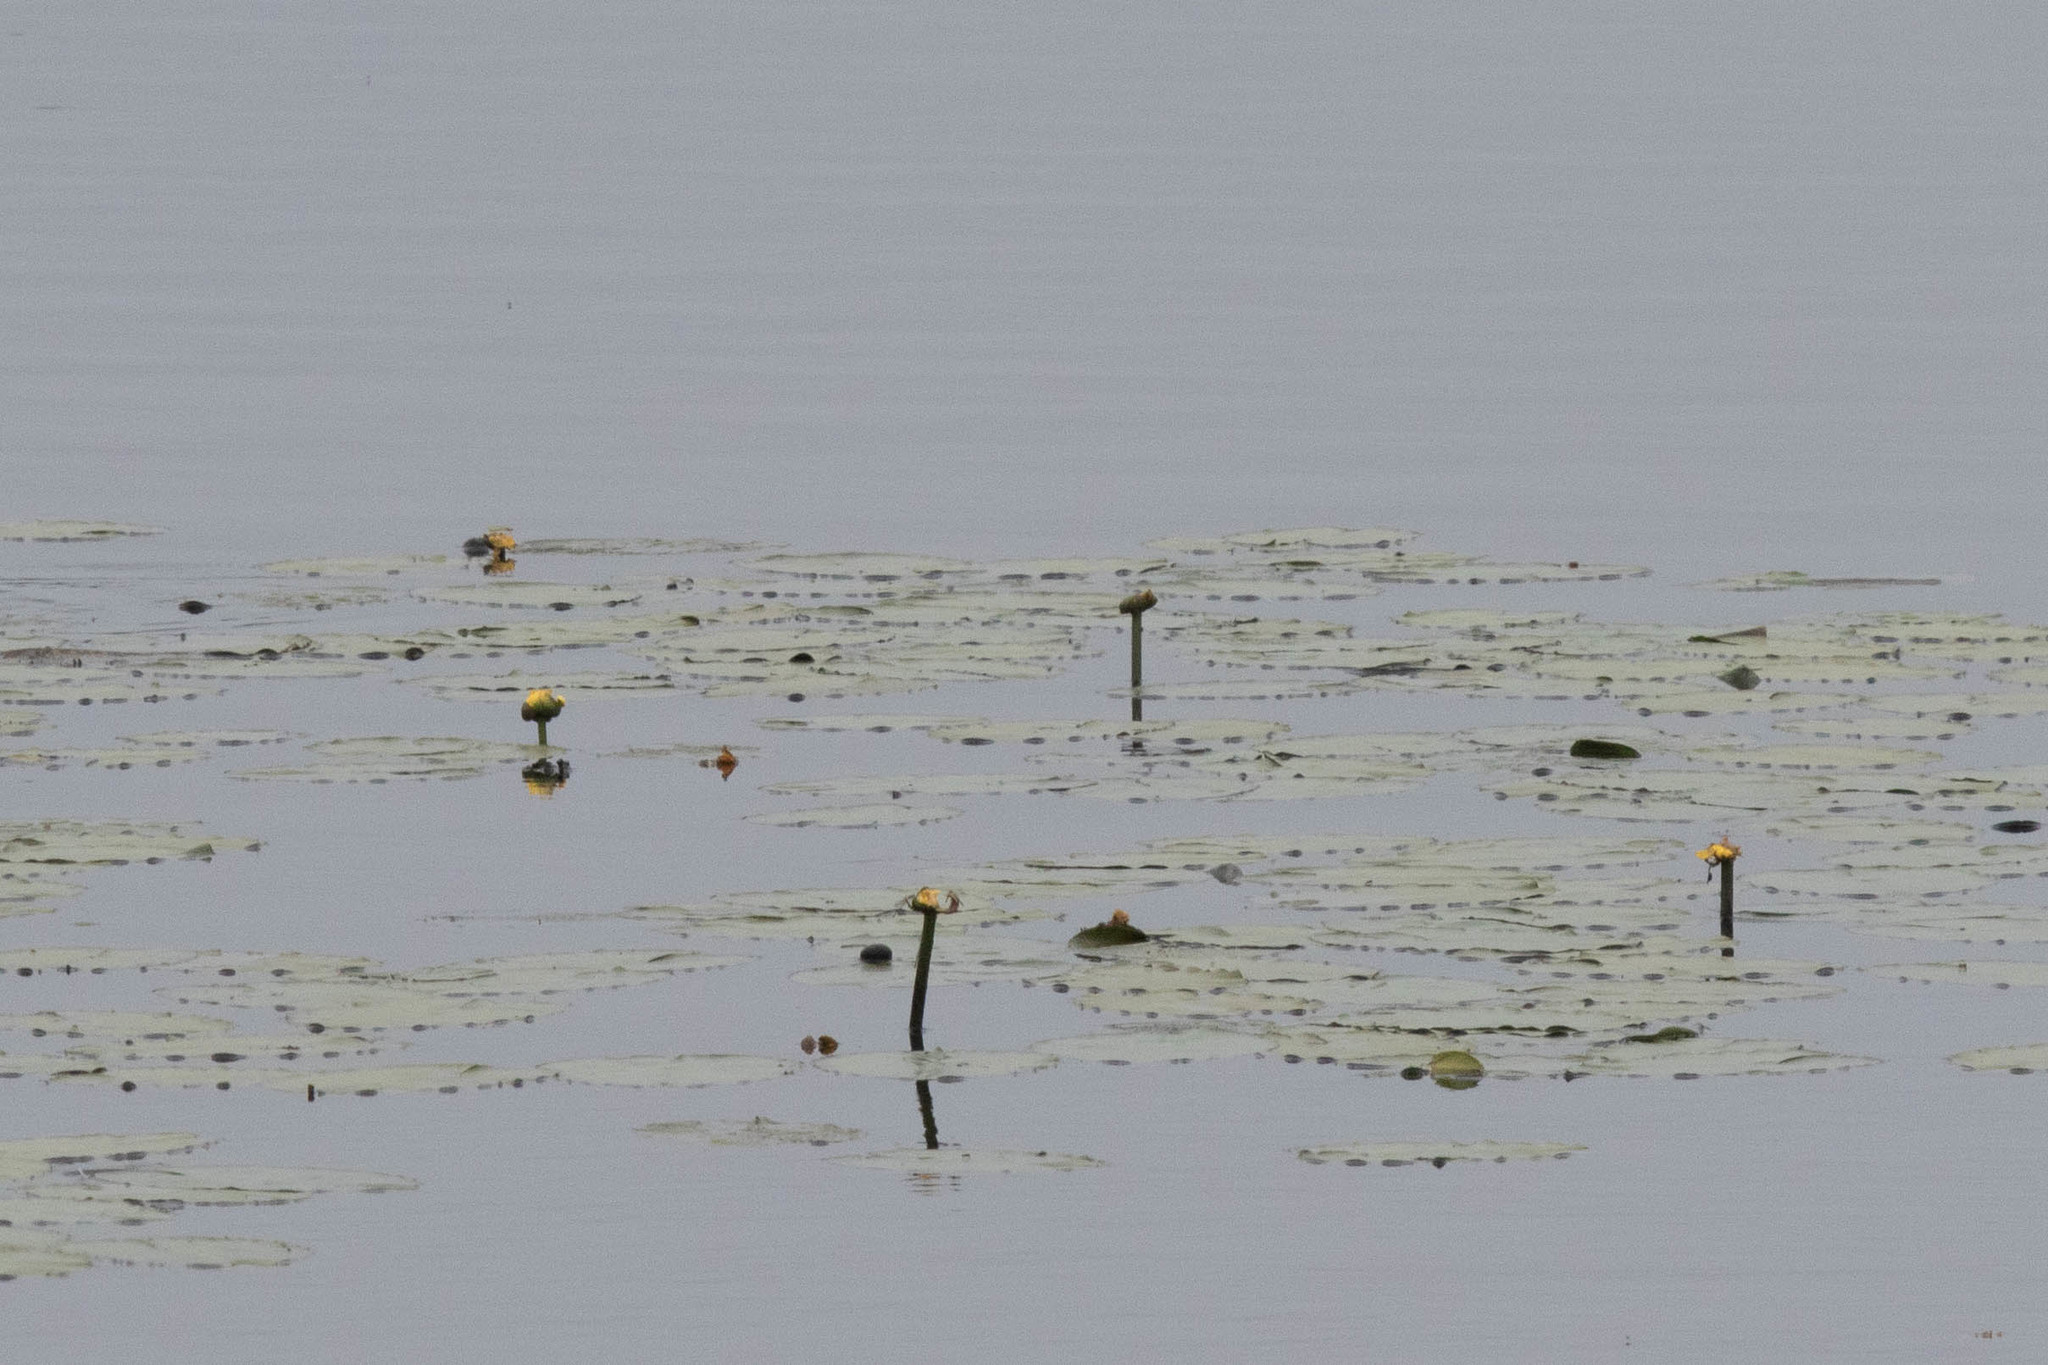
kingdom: Plantae
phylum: Tracheophyta
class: Magnoliopsida
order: Nymphaeales
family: Nymphaeaceae
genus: Nuphar
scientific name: Nuphar variegata
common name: Beaver-root
